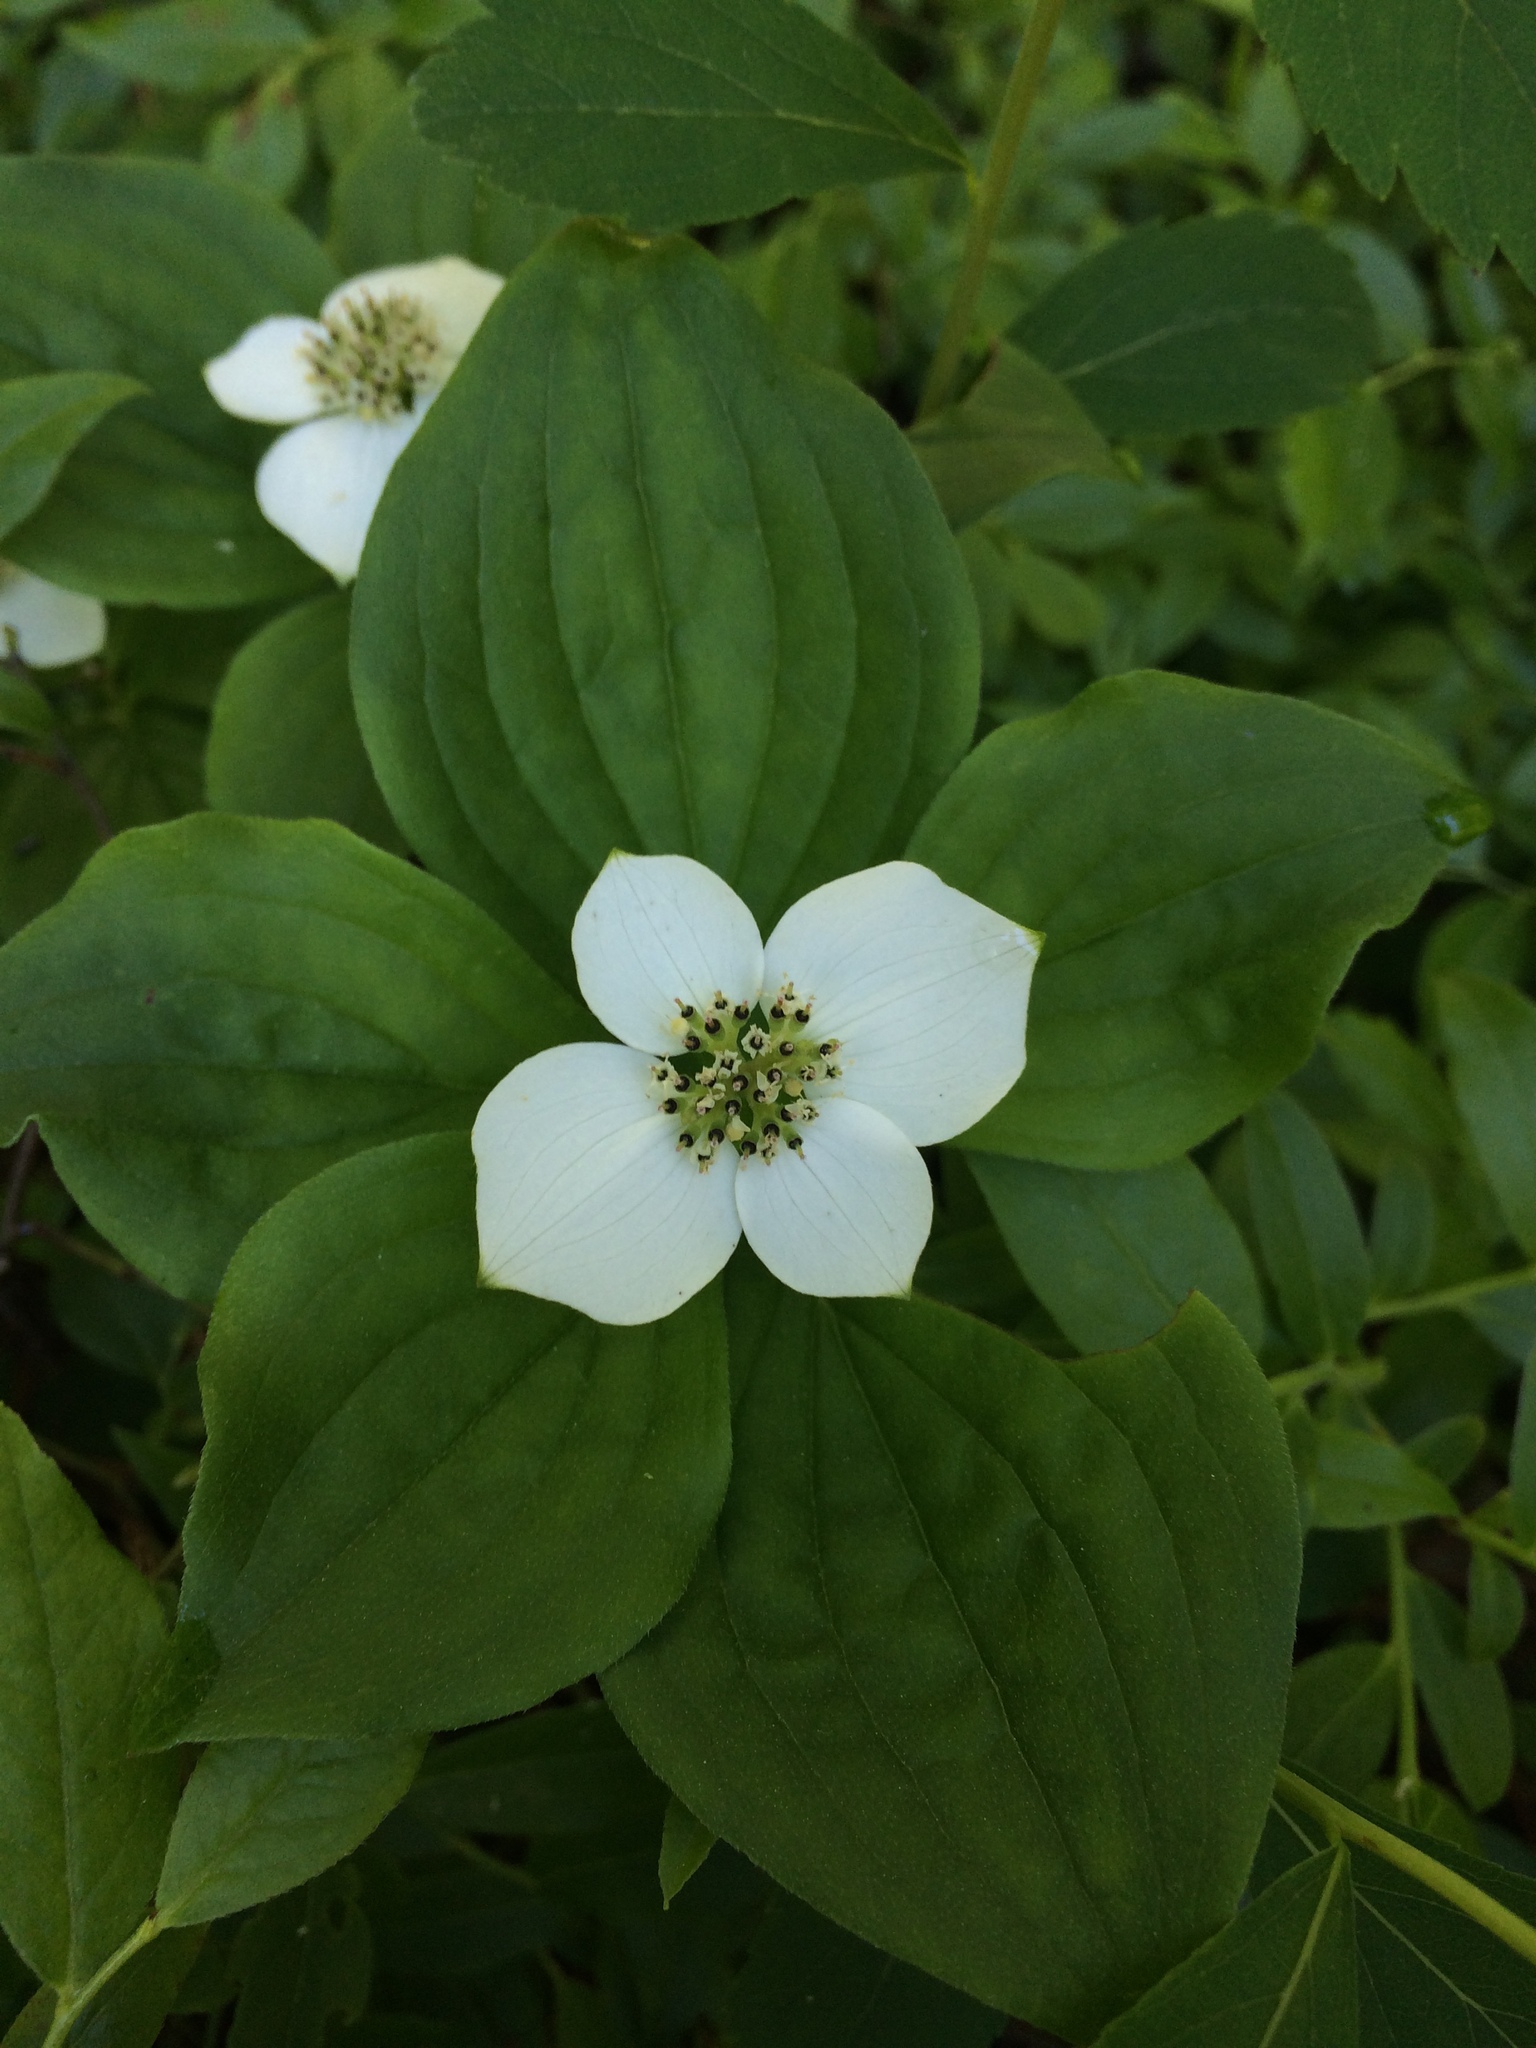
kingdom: Plantae
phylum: Tracheophyta
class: Magnoliopsida
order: Cornales
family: Cornaceae
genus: Cornus
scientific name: Cornus canadensis
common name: Creeping dogwood
